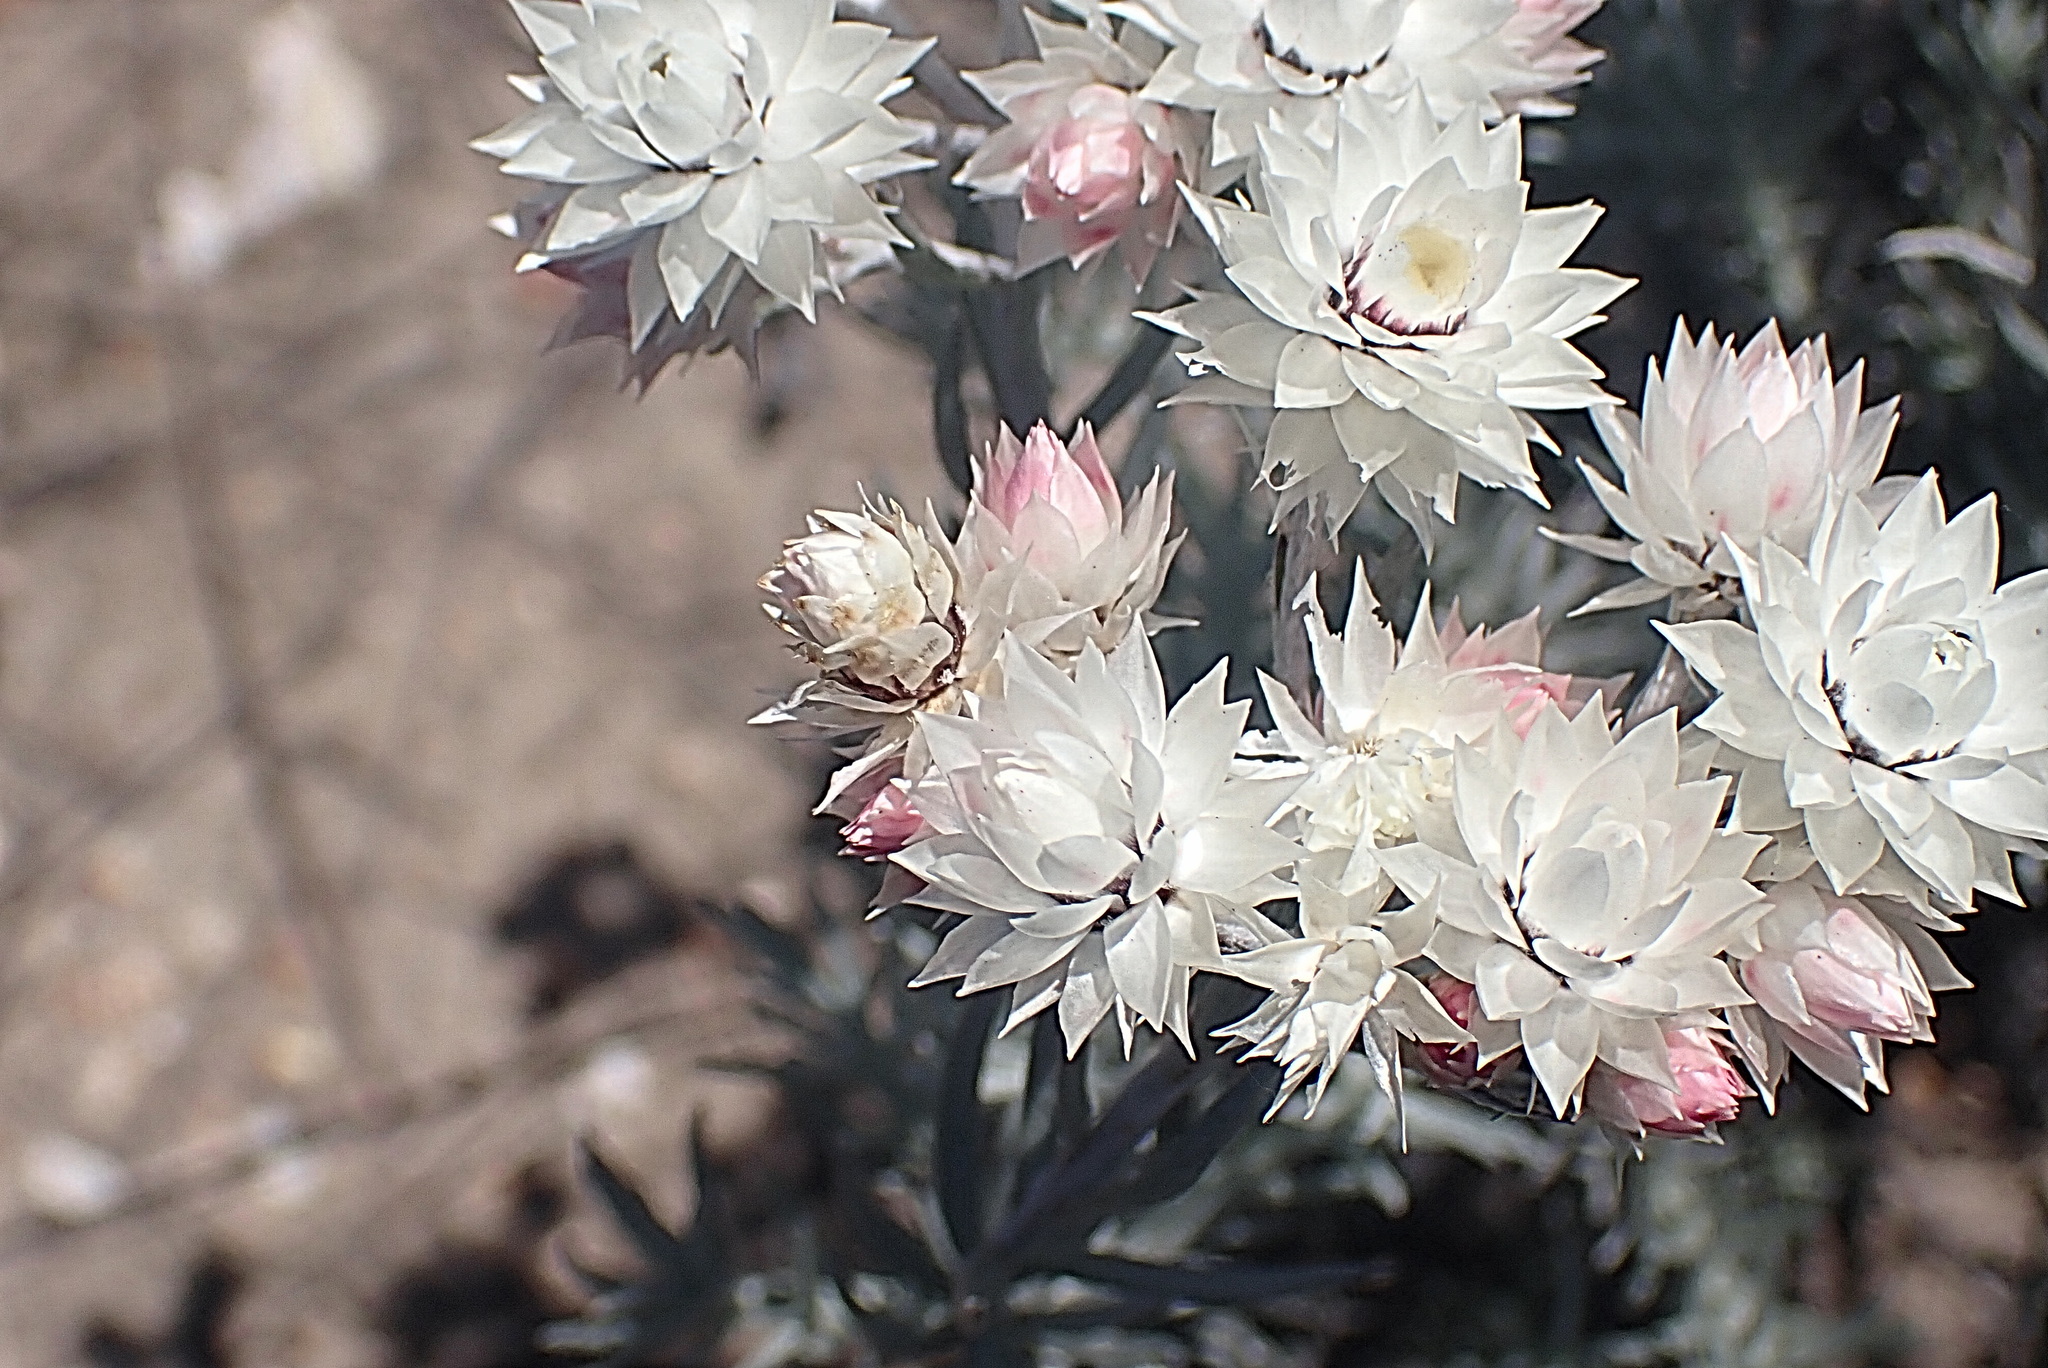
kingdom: Plantae
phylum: Tracheophyta
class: Magnoliopsida
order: Asterales
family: Asteraceae
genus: Achyranthemum
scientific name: Achyranthemum paniculatum
